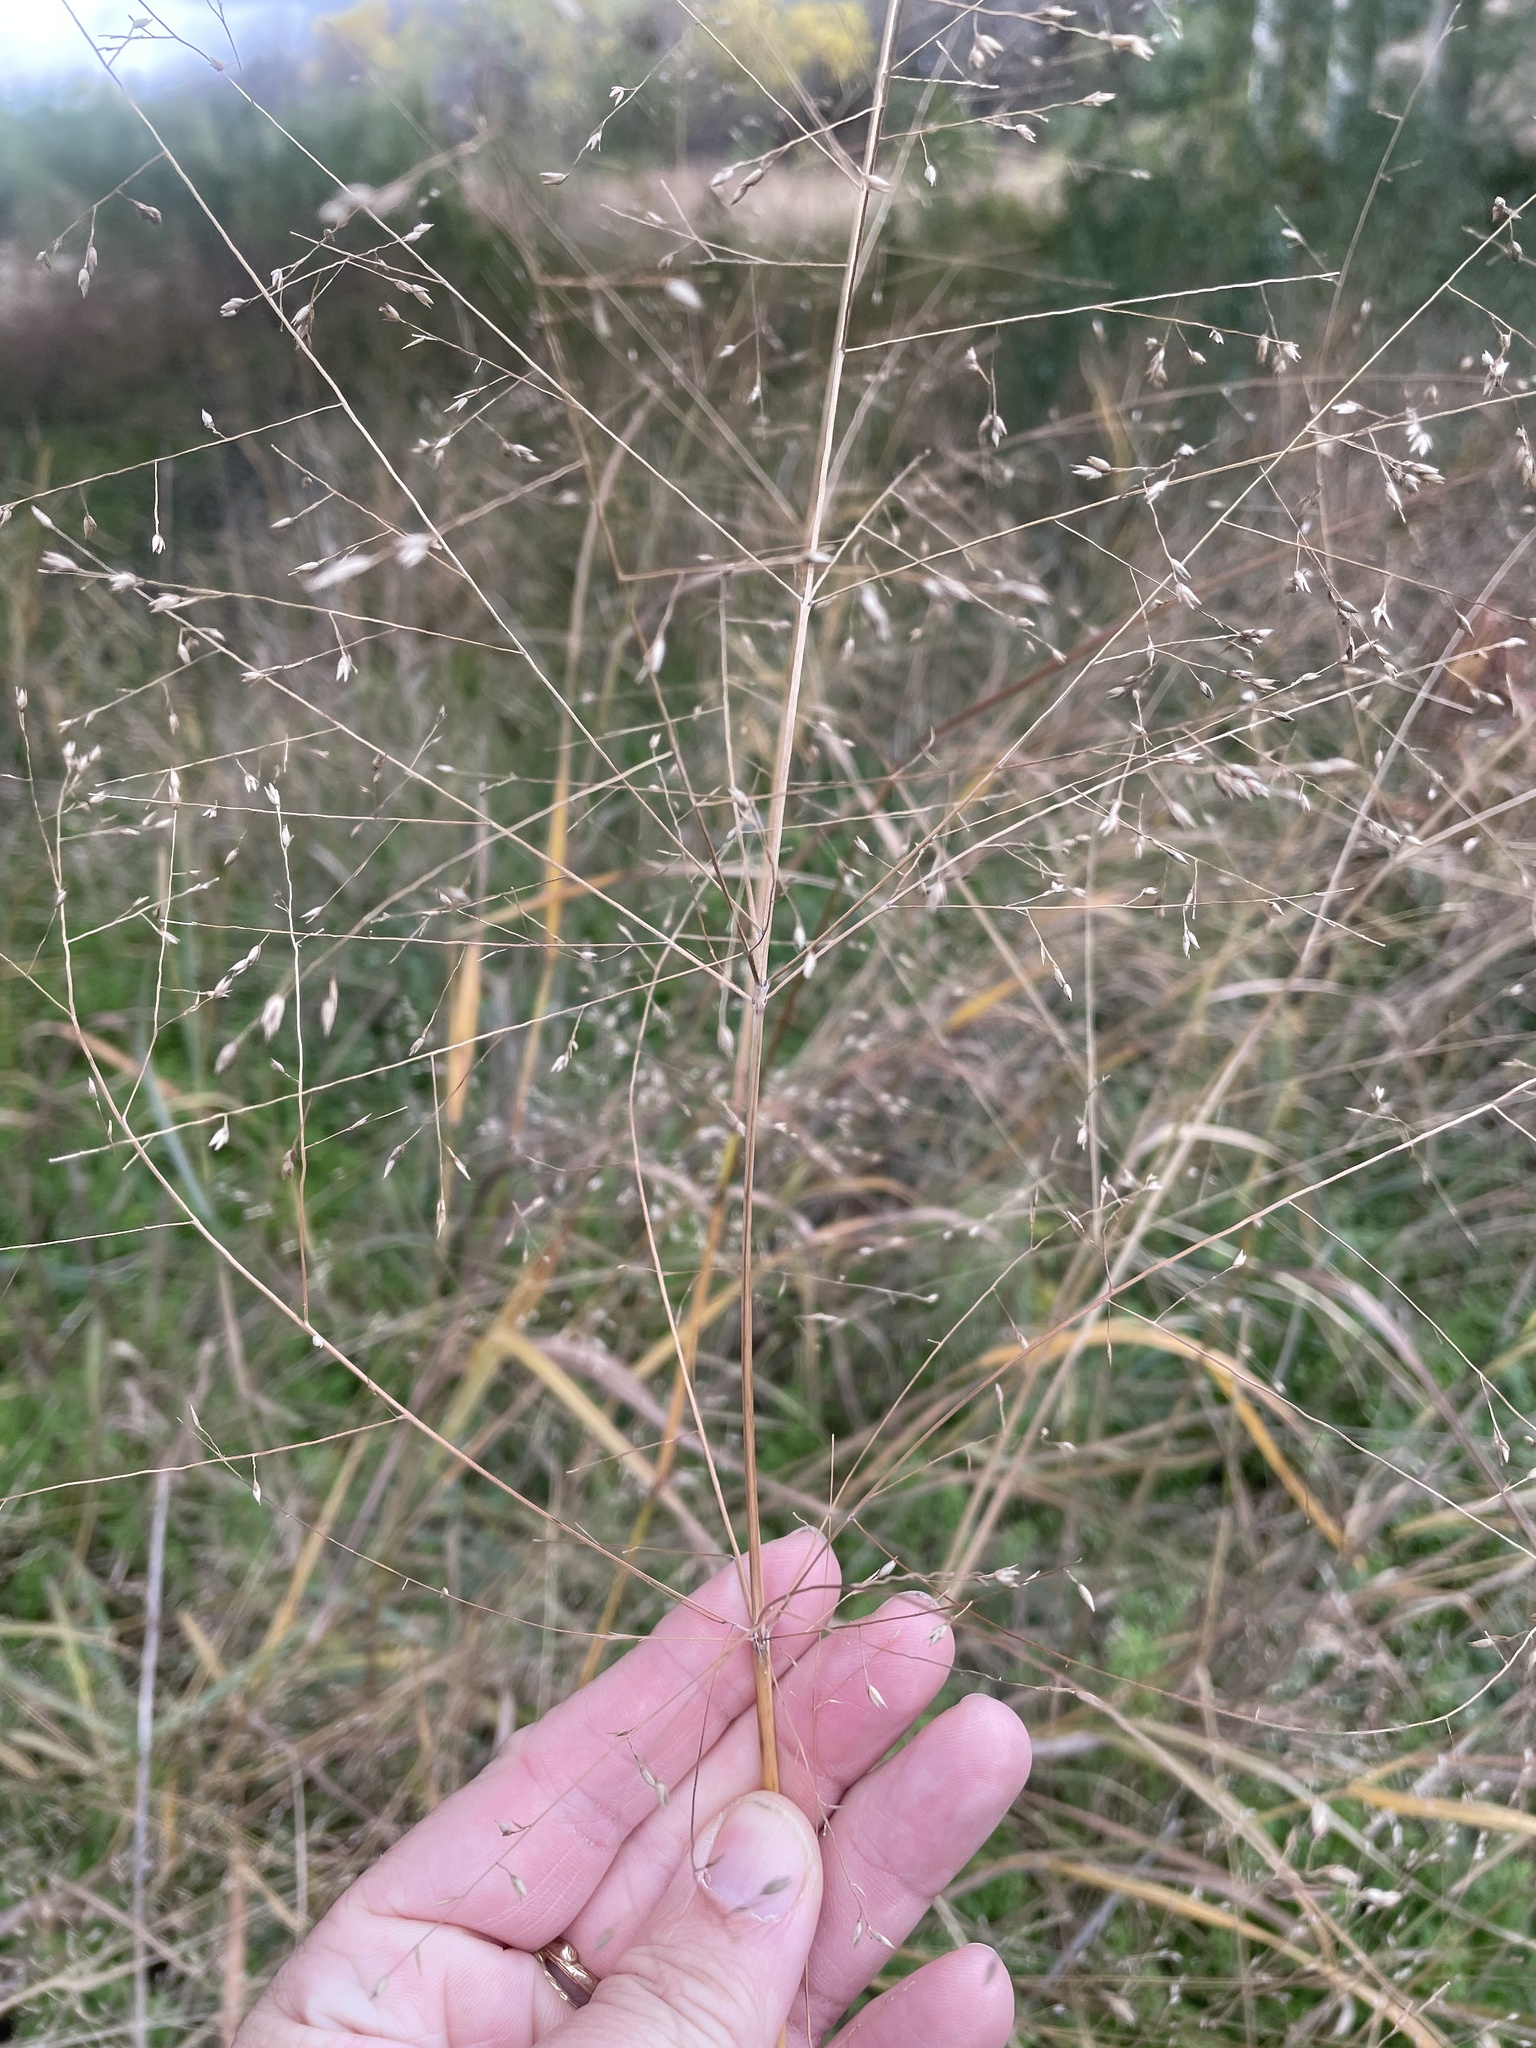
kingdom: Plantae
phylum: Tracheophyta
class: Liliopsida
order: Poales
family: Poaceae
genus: Panicum
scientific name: Panicum virgatum
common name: Switchgrass
